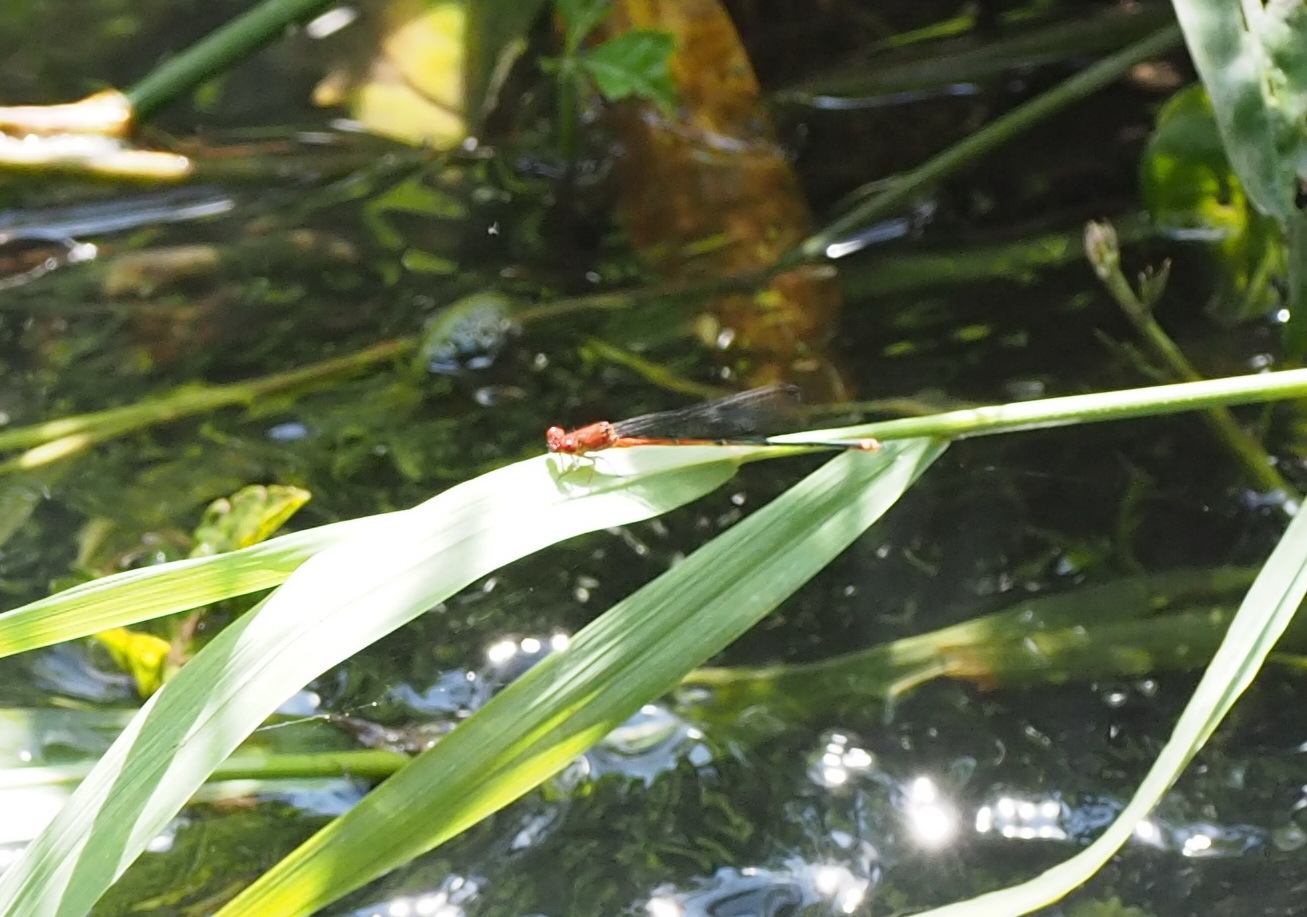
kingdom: Animalia
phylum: Arthropoda
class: Insecta
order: Odonata
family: Coenagrionidae
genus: Pseudagrion
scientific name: Pseudagrion pilidorsum
